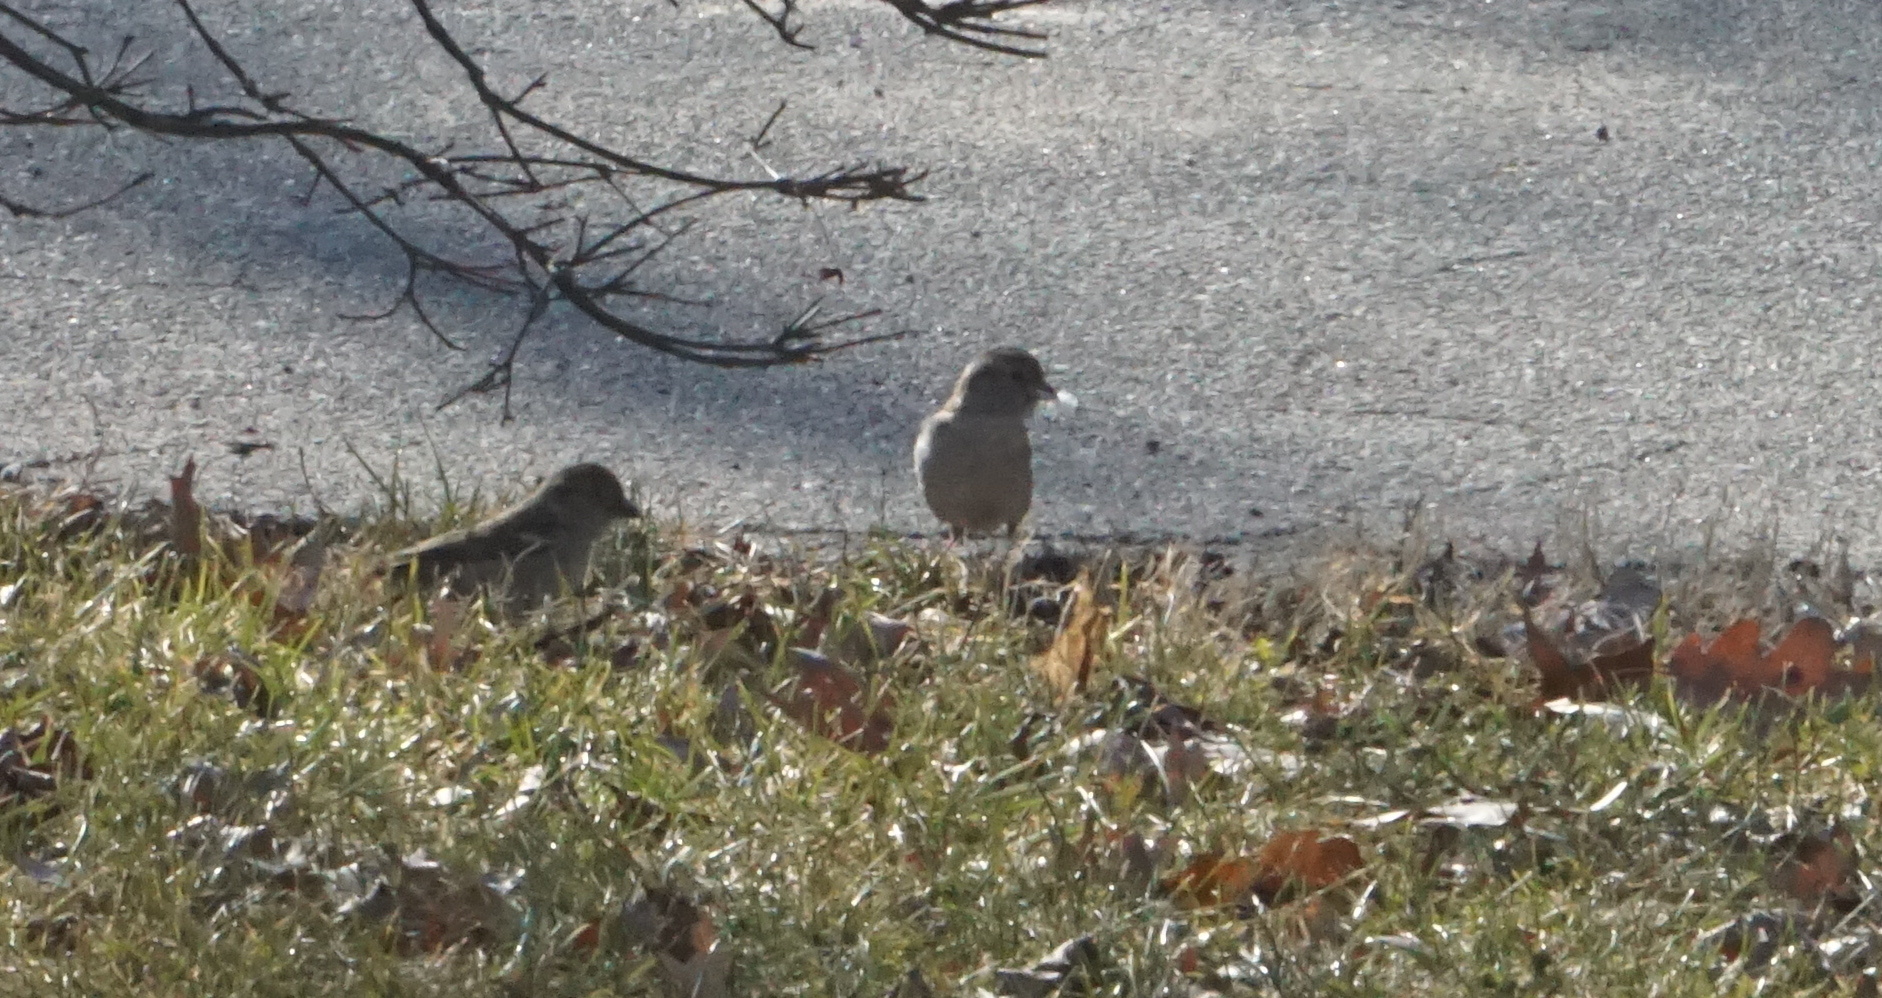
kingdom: Animalia
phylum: Chordata
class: Aves
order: Passeriformes
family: Passeridae
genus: Passer
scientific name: Passer domesticus
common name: House sparrow
